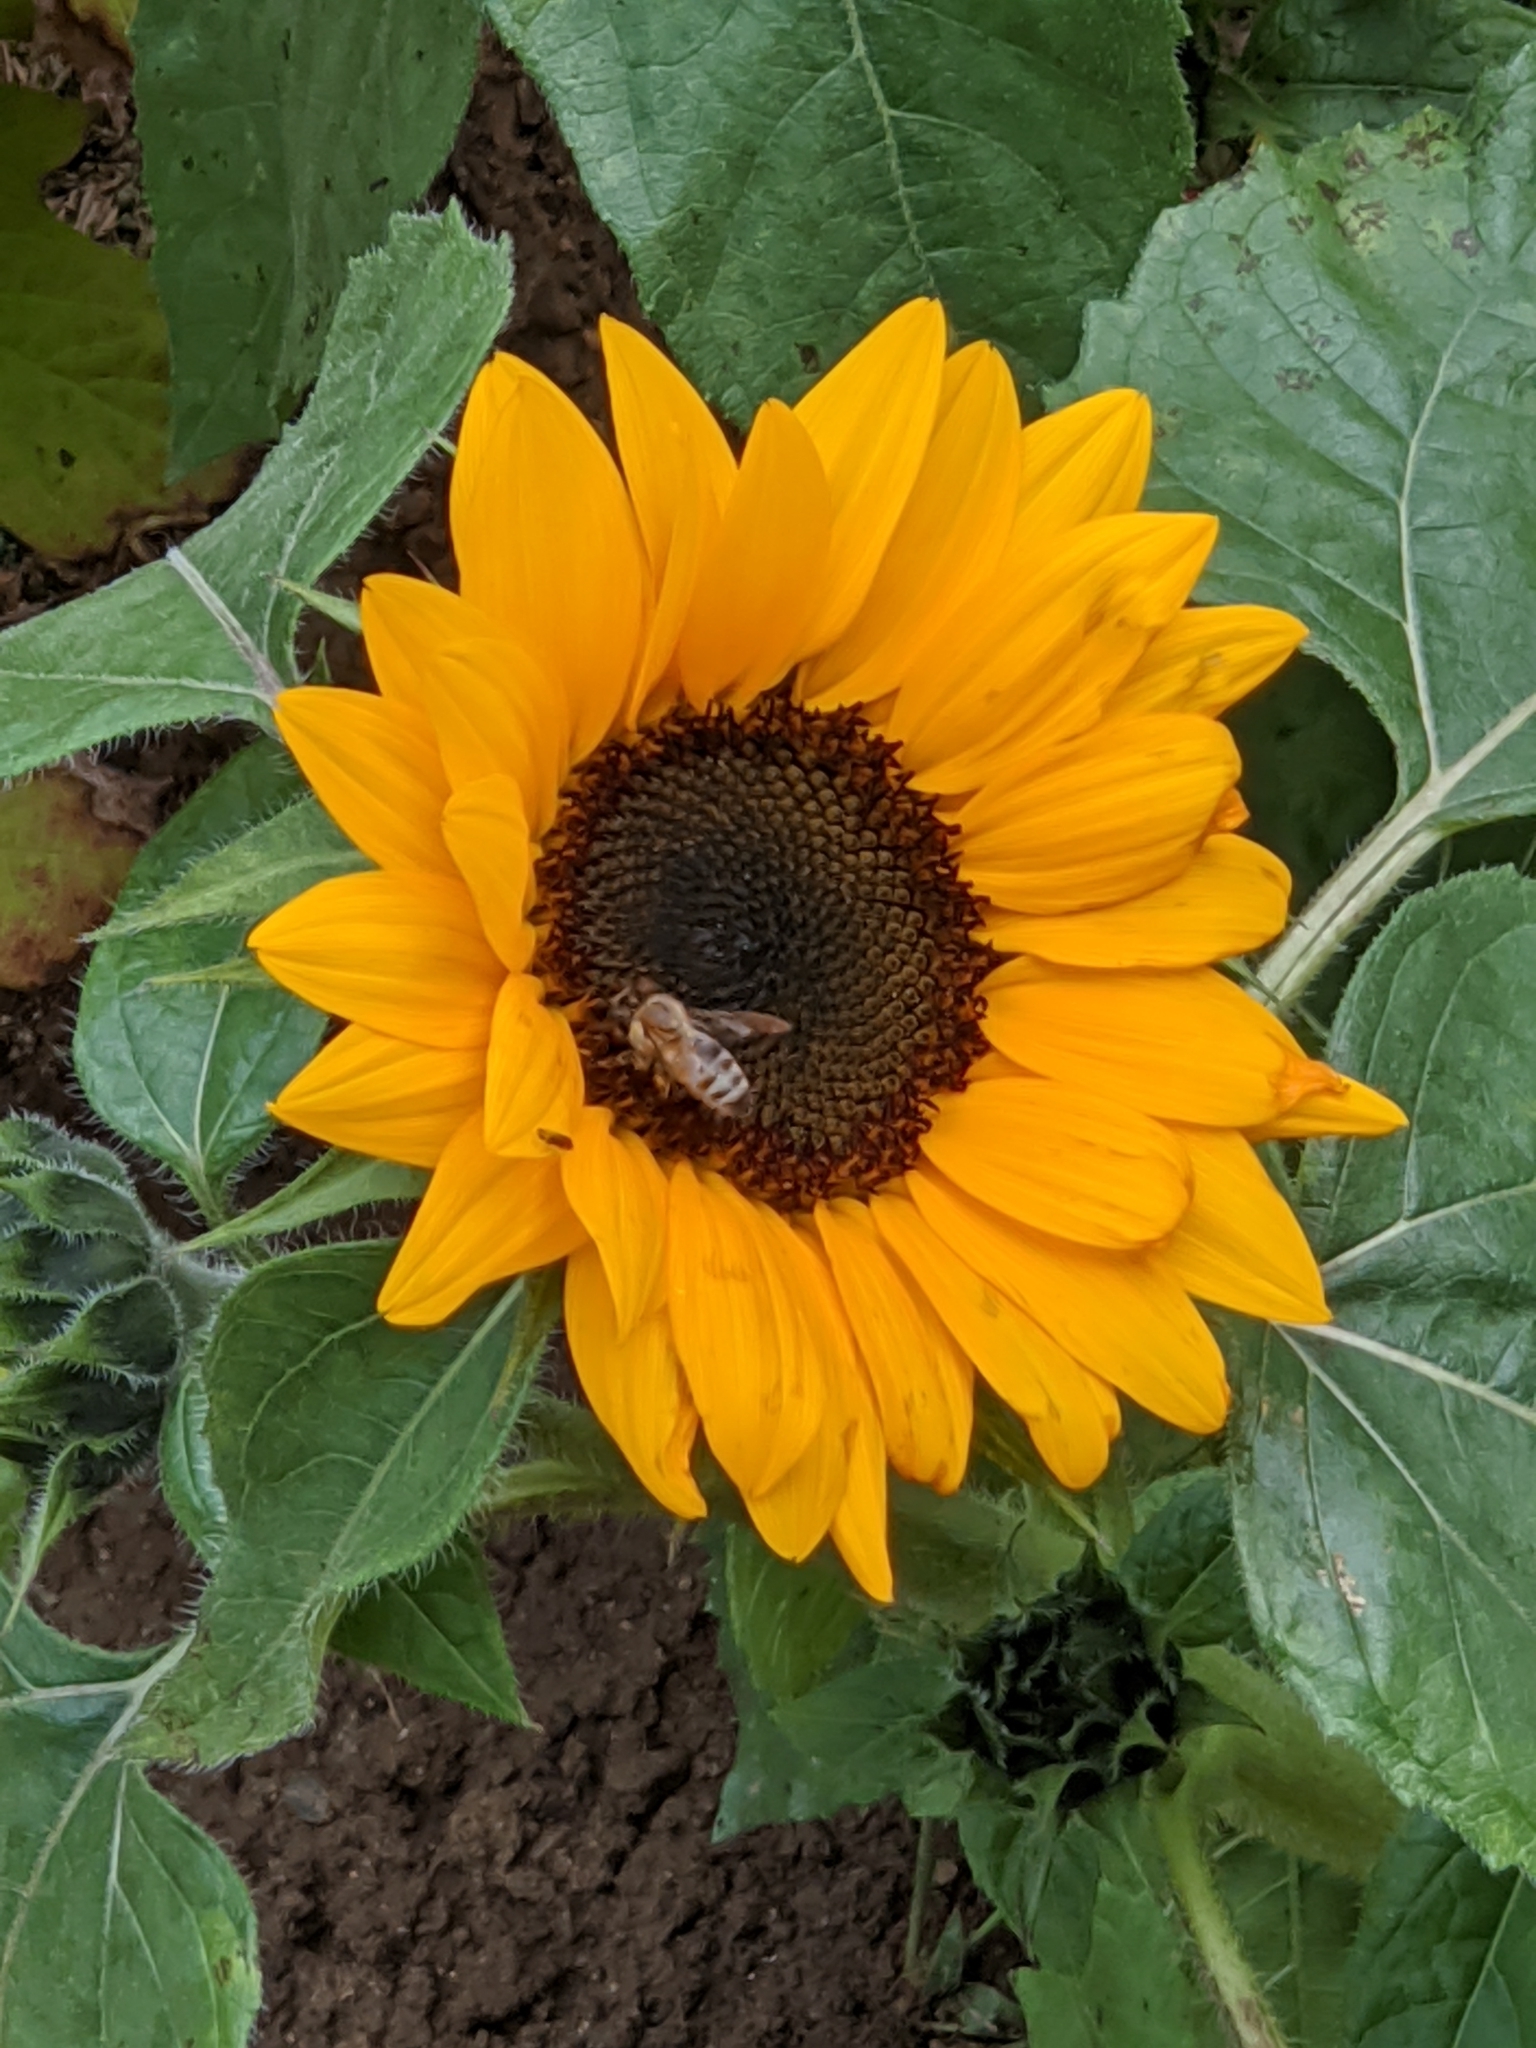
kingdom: Animalia
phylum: Arthropoda
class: Insecta
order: Hymenoptera
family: Apidae
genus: Apis
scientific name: Apis mellifera
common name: Honey bee
